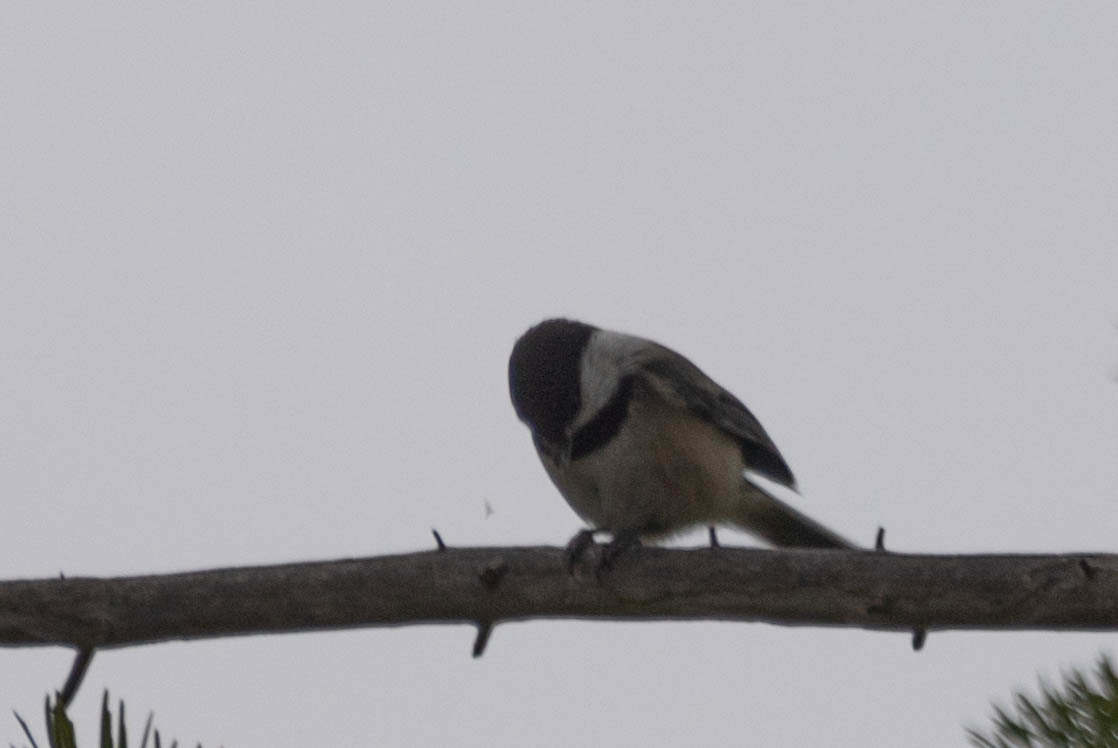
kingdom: Animalia
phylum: Chordata
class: Aves
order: Passeriformes
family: Paridae
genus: Poecile
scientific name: Poecile atricapillus
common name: Black-capped chickadee
